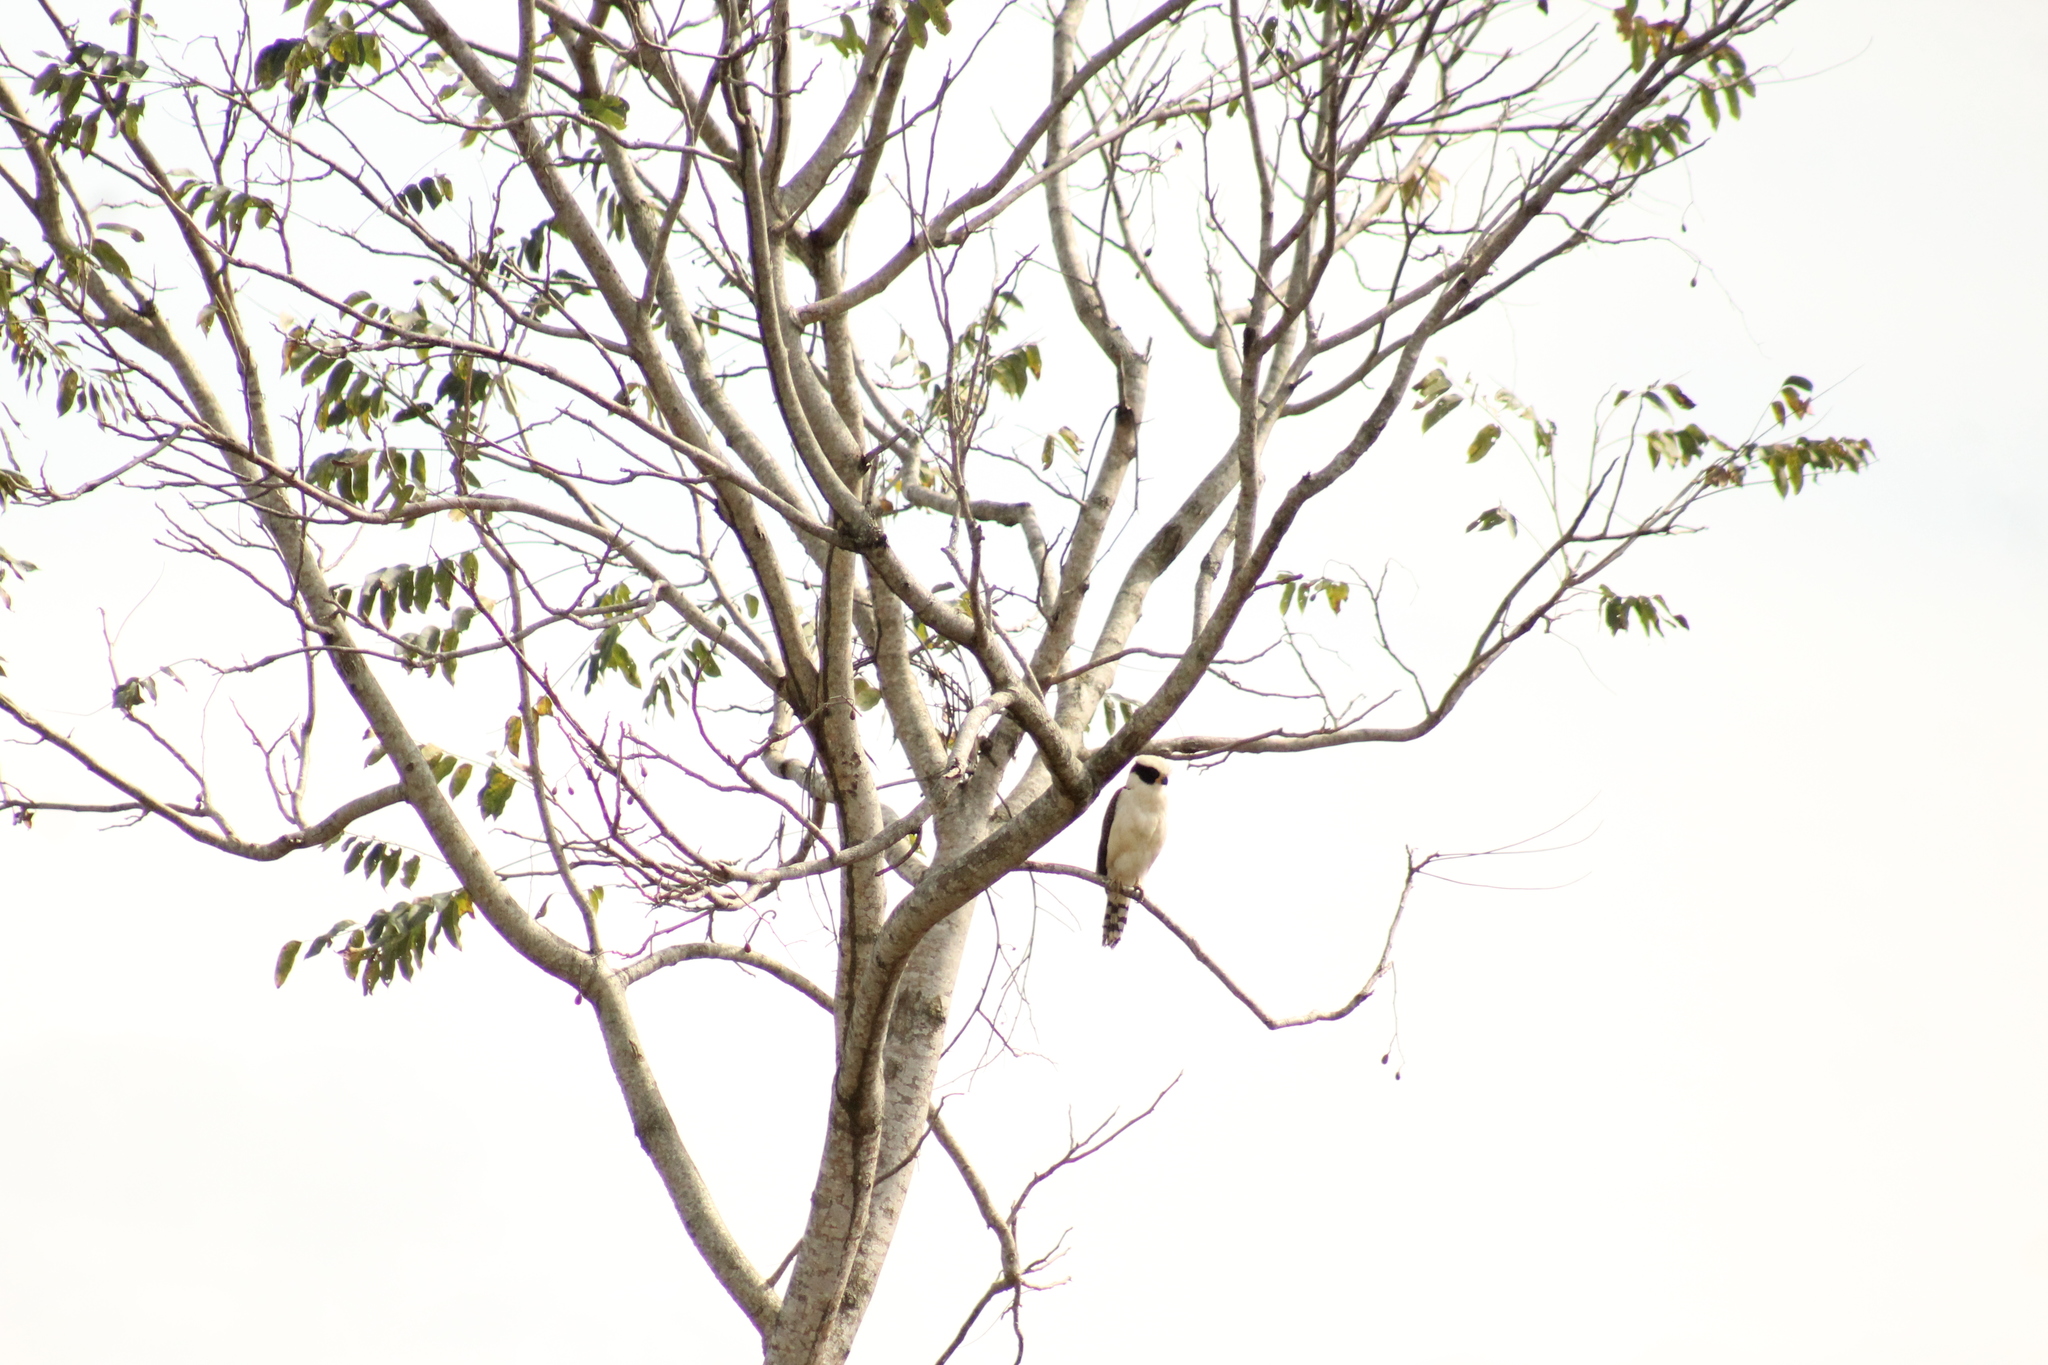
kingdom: Animalia
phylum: Chordata
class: Aves
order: Falconiformes
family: Falconidae
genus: Herpetotheres
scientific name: Herpetotheres cachinnans
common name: Laughing falcon
